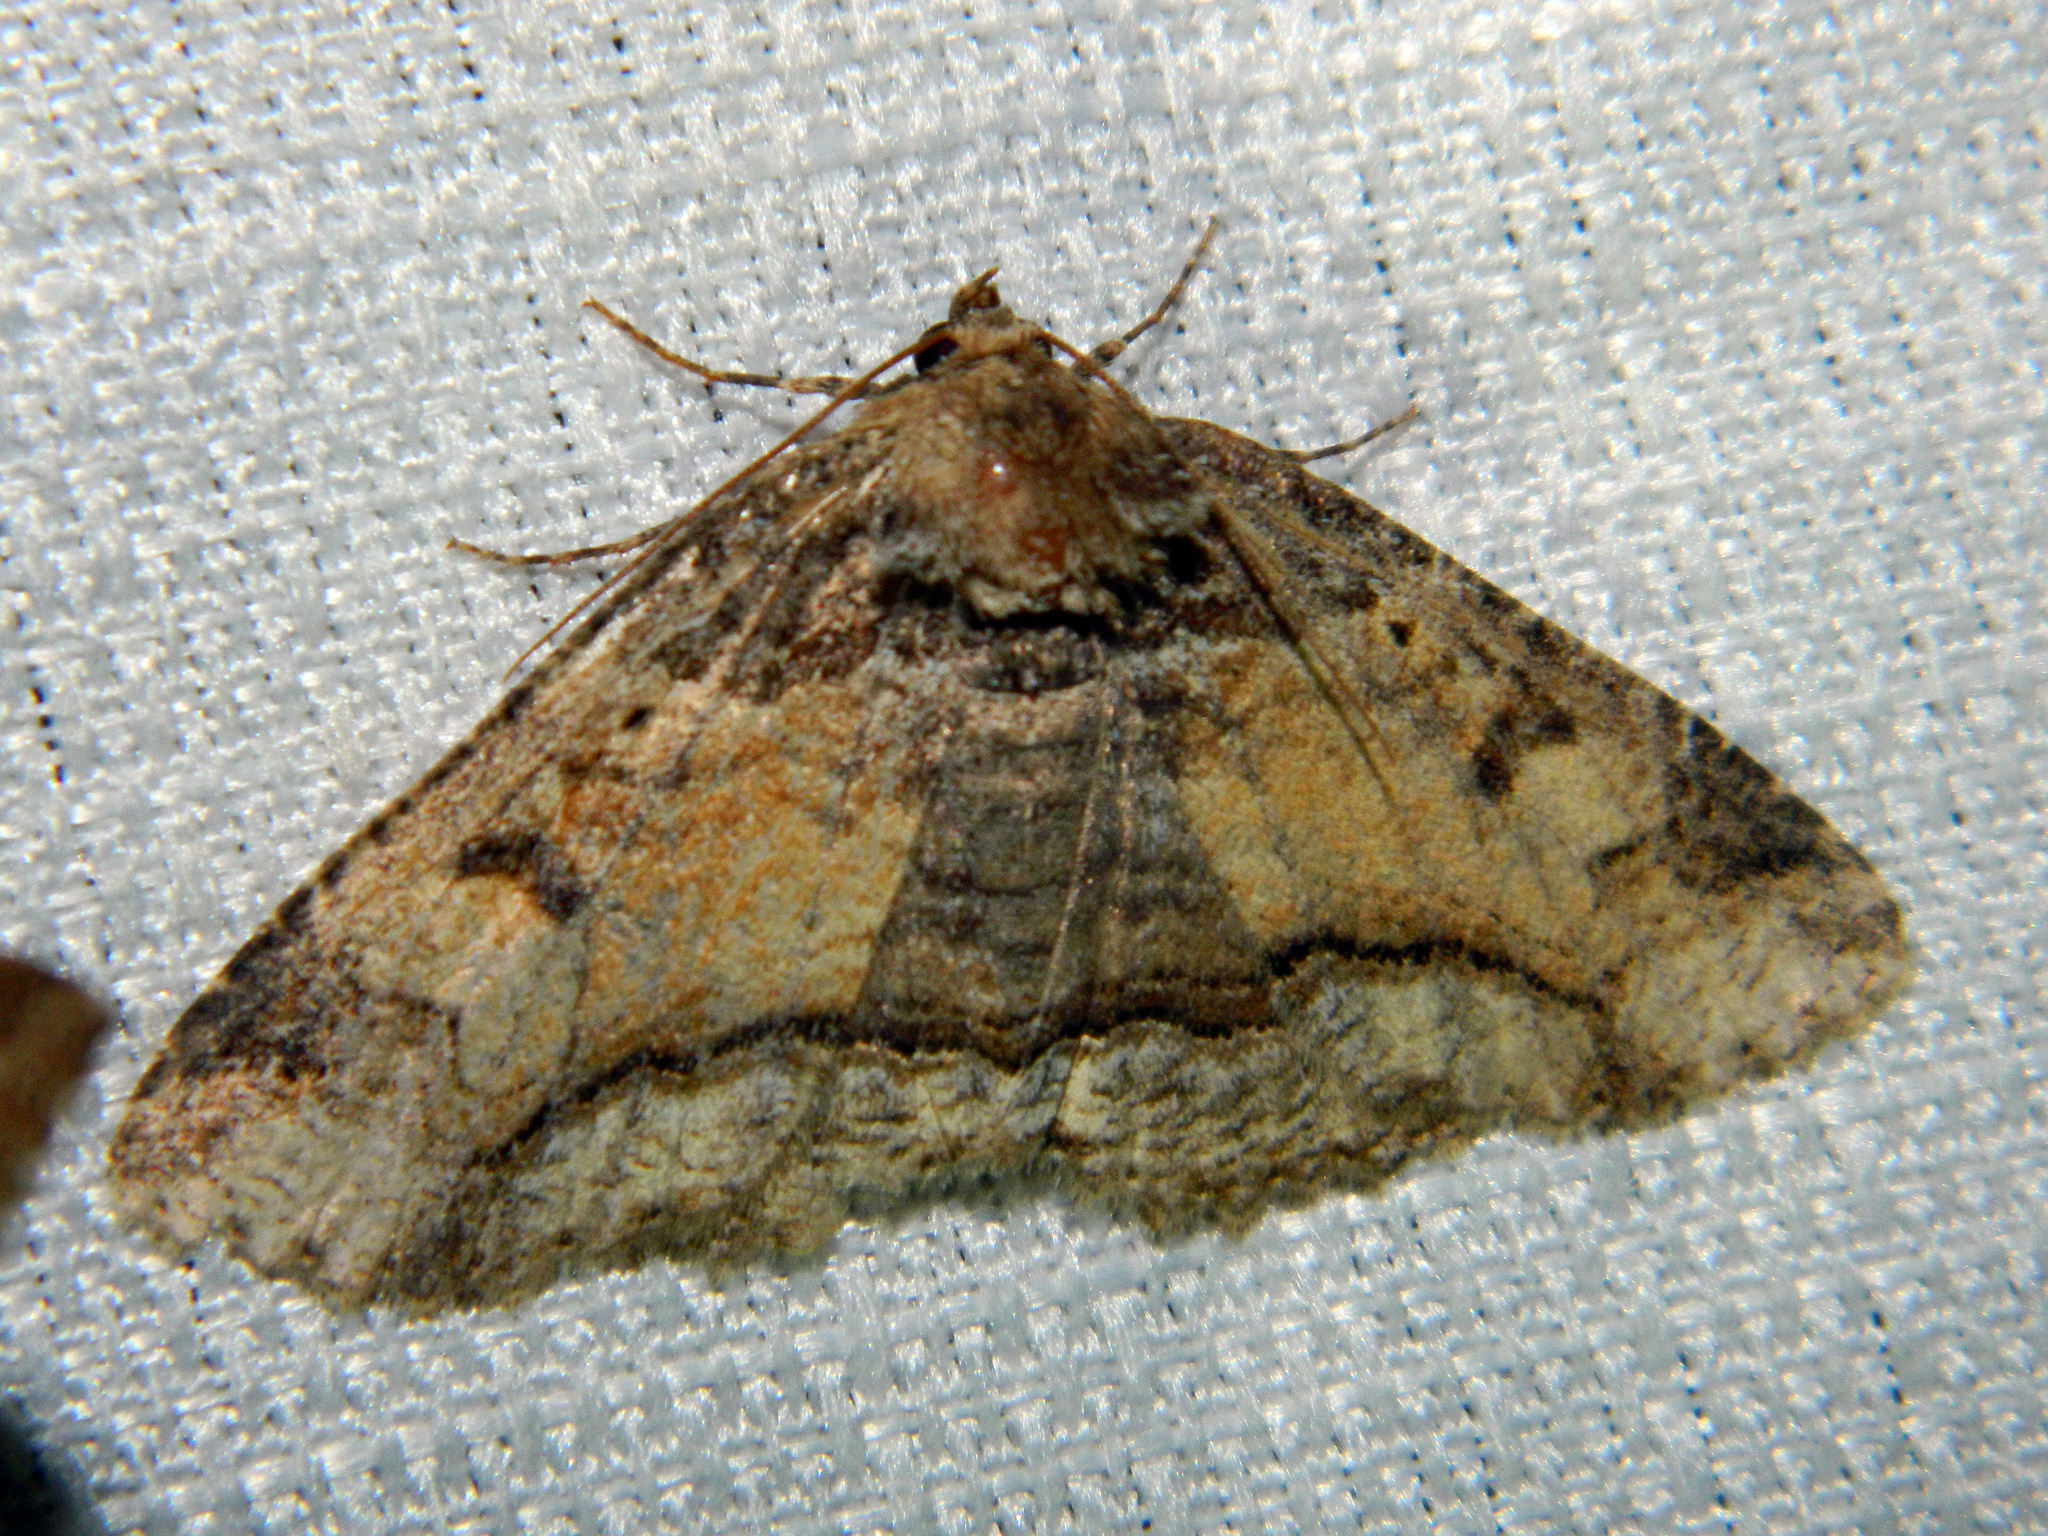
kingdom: Animalia
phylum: Arthropoda
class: Insecta
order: Lepidoptera
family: Erebidae
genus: Zale
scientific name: Zale minerea
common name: Colorful zale moth
